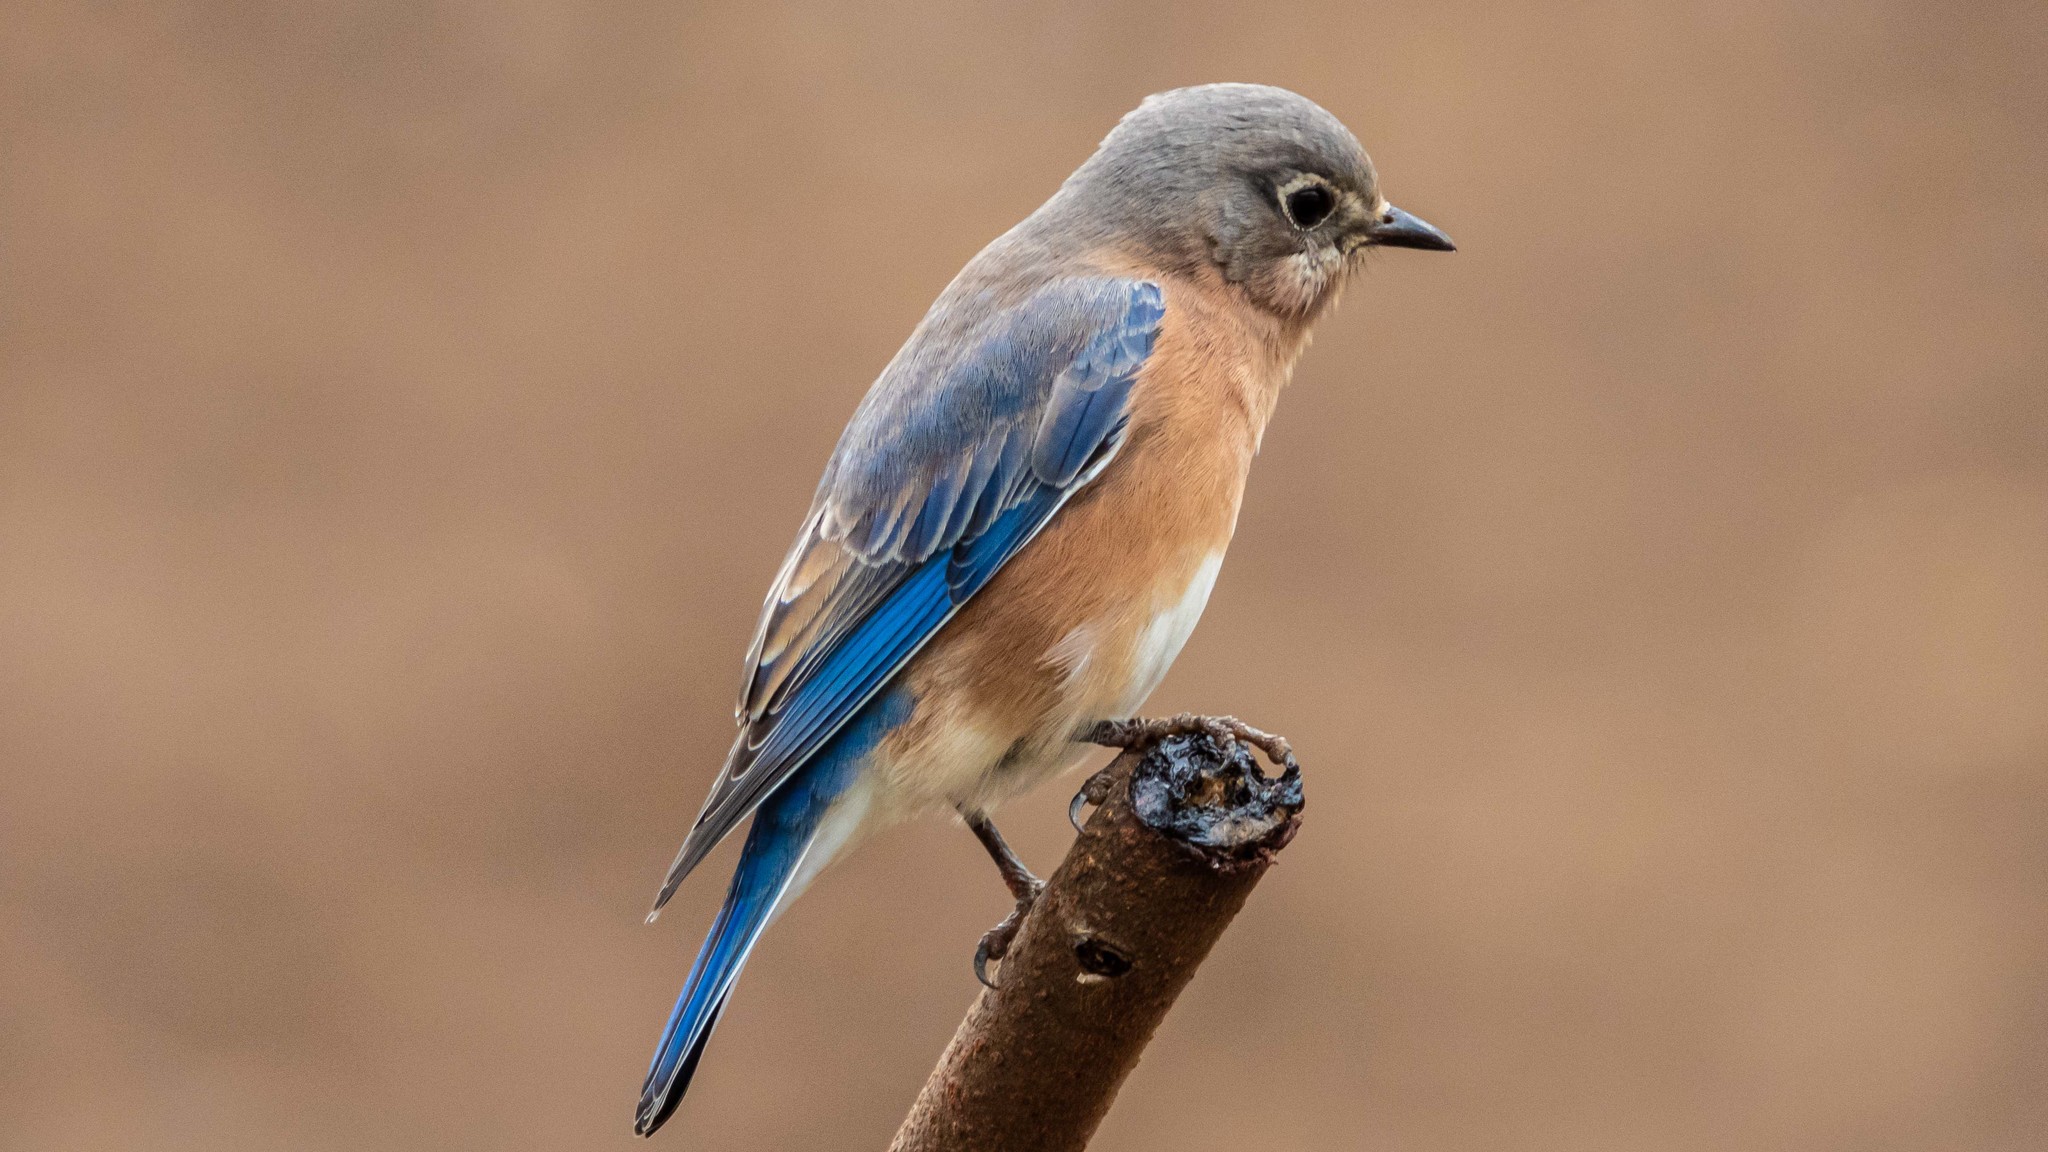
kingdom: Animalia
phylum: Chordata
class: Aves
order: Passeriformes
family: Turdidae
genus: Sialia
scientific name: Sialia sialis
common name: Eastern bluebird
